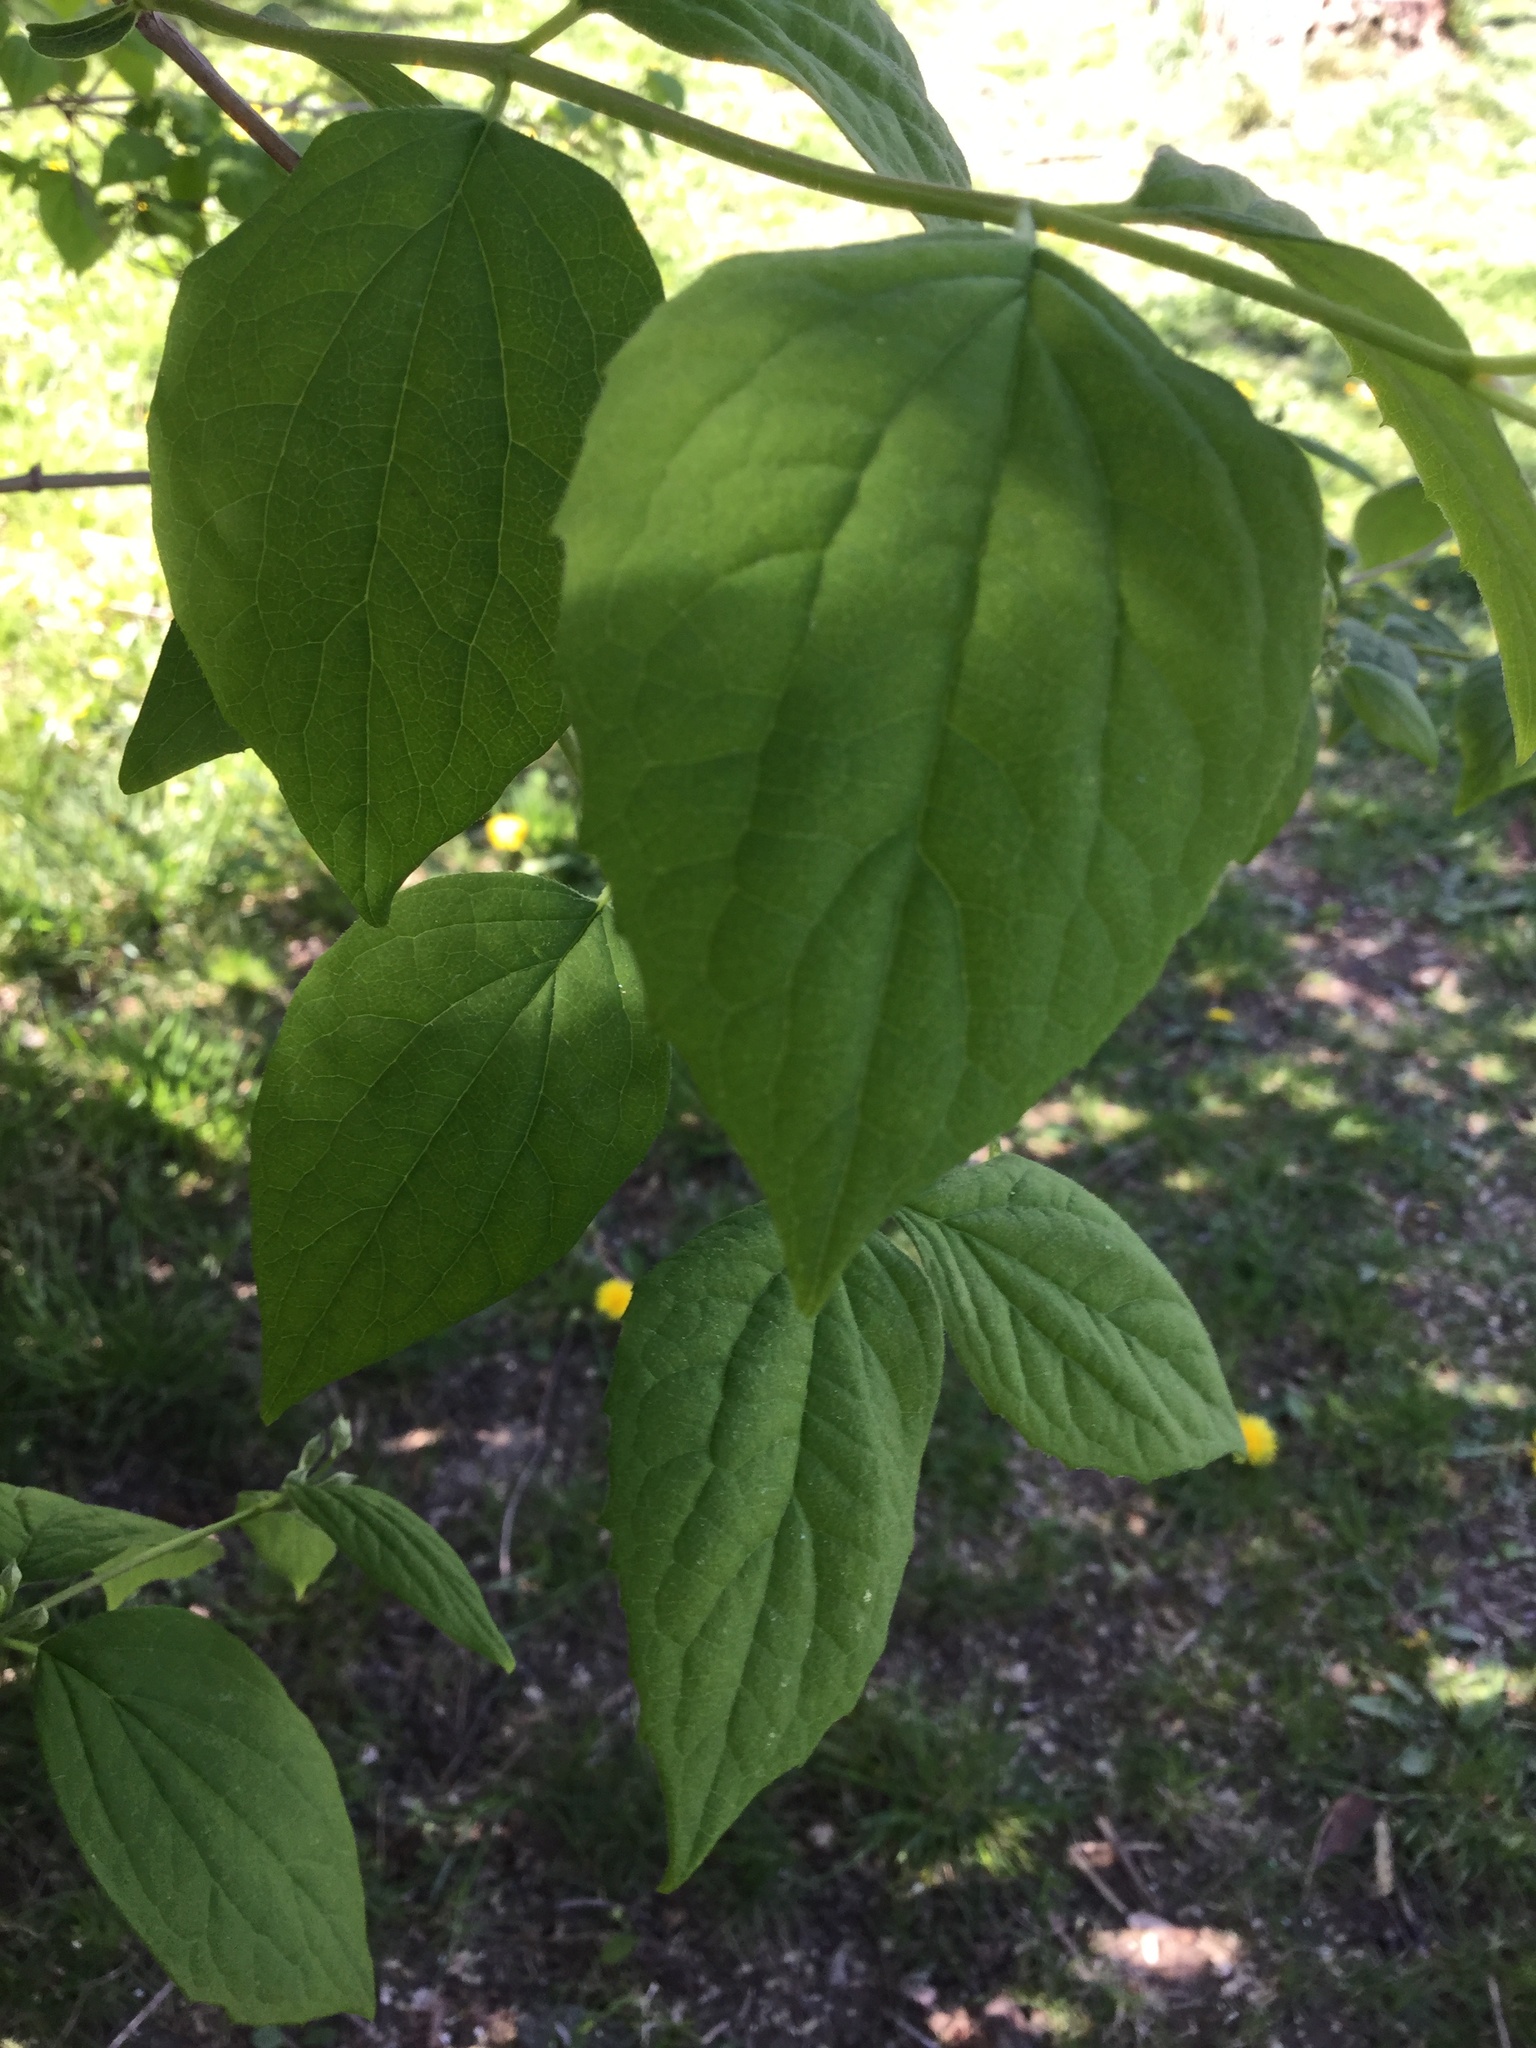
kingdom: Plantae
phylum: Tracheophyta
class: Magnoliopsida
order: Cornales
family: Hydrangeaceae
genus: Philadelphus
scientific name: Philadelphus coronarius
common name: Mock orange
